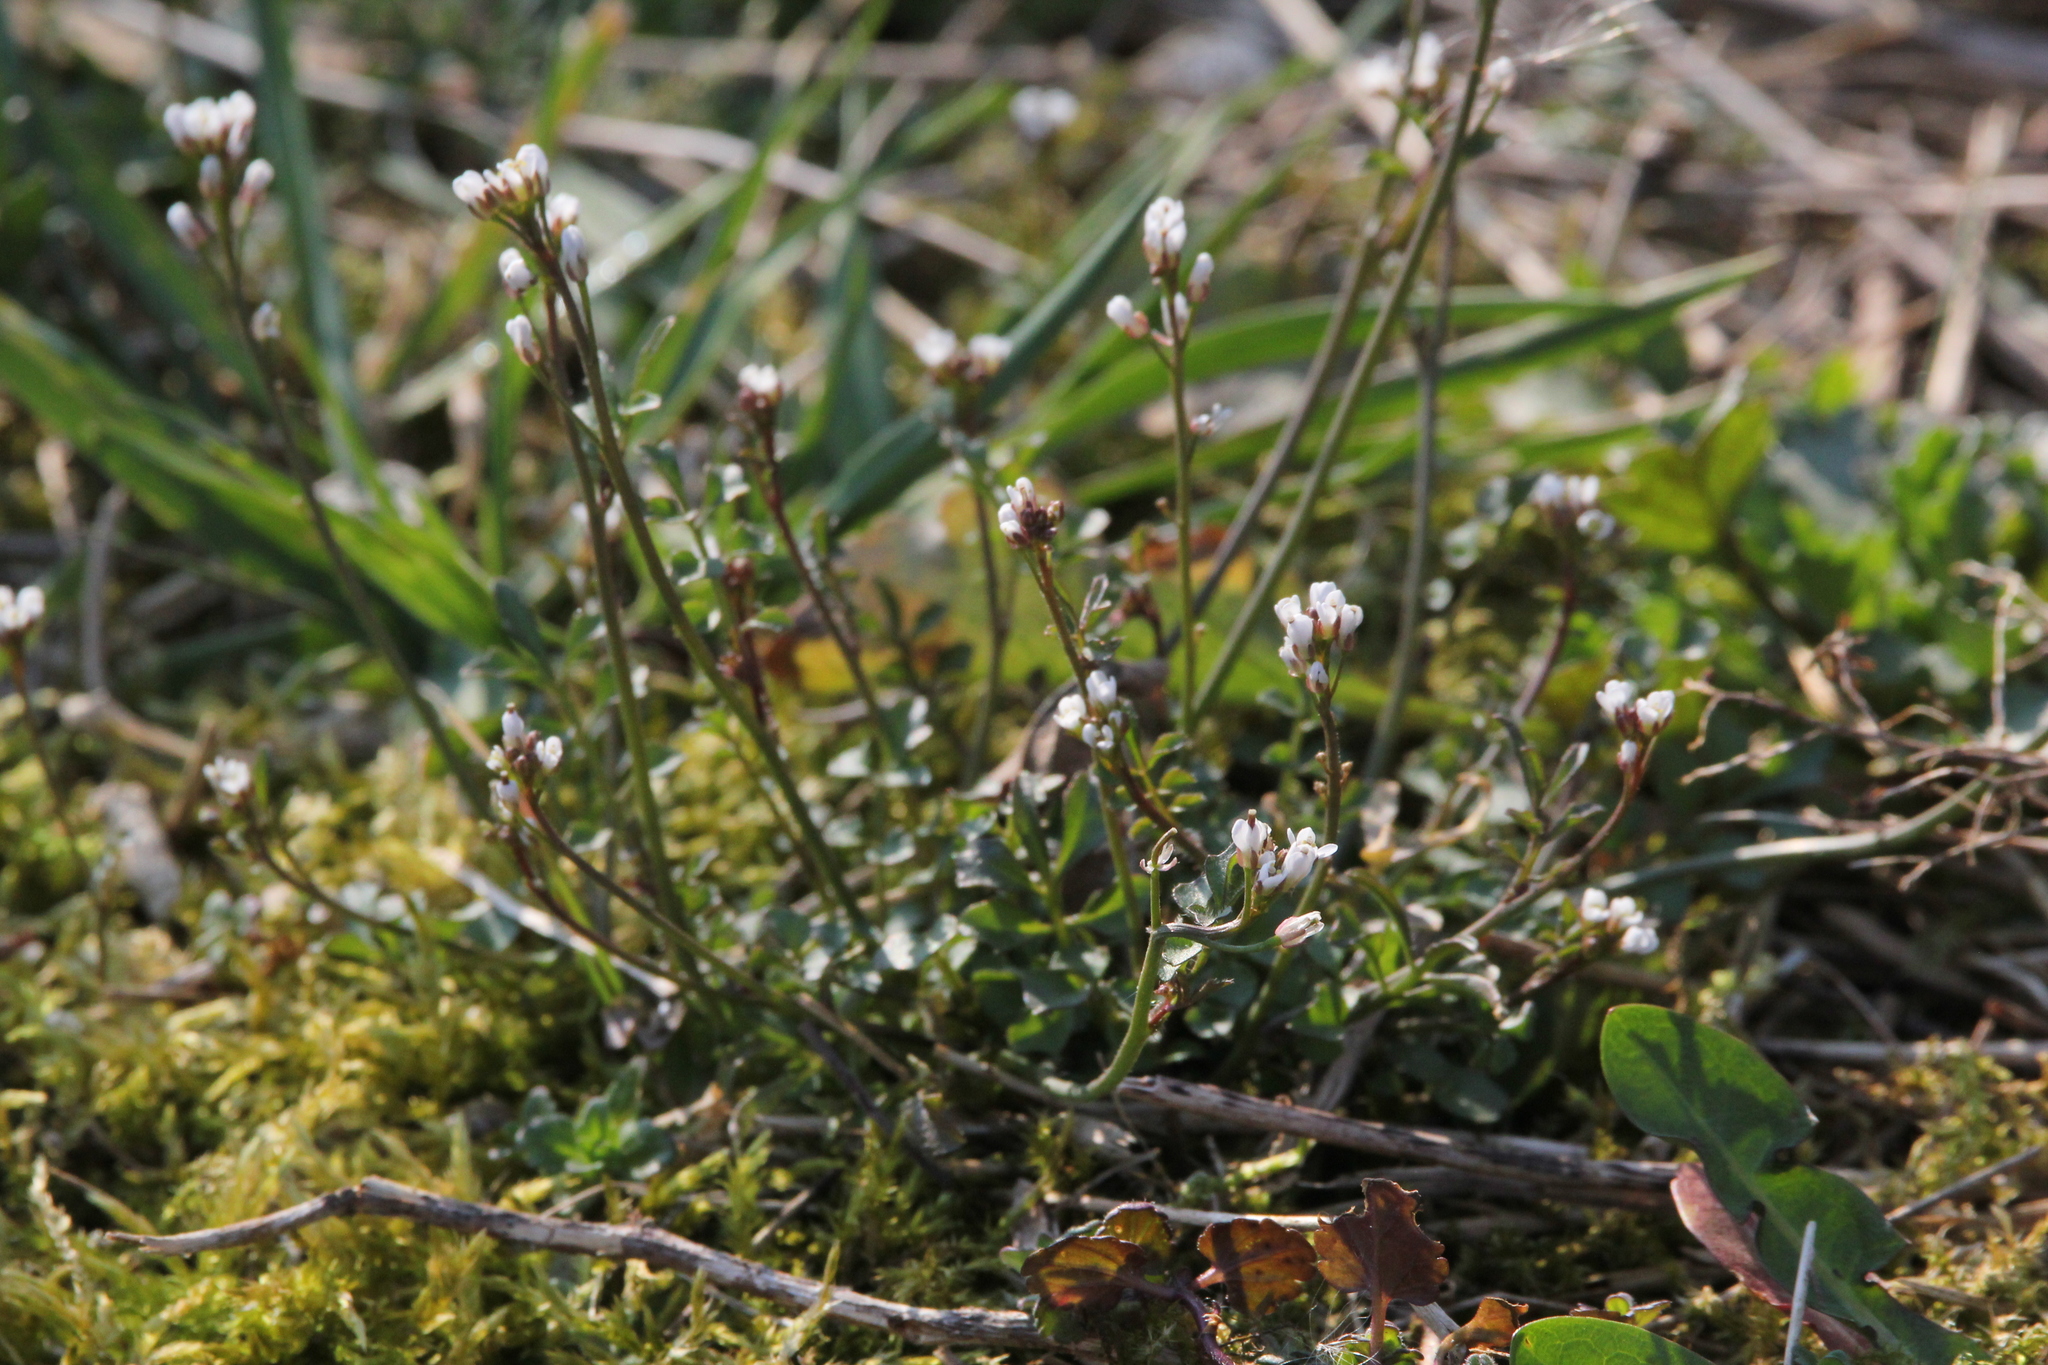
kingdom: Plantae
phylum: Tracheophyta
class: Magnoliopsida
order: Brassicales
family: Brassicaceae
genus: Cardamine
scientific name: Cardamine hirsuta
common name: Hairy bittercress
